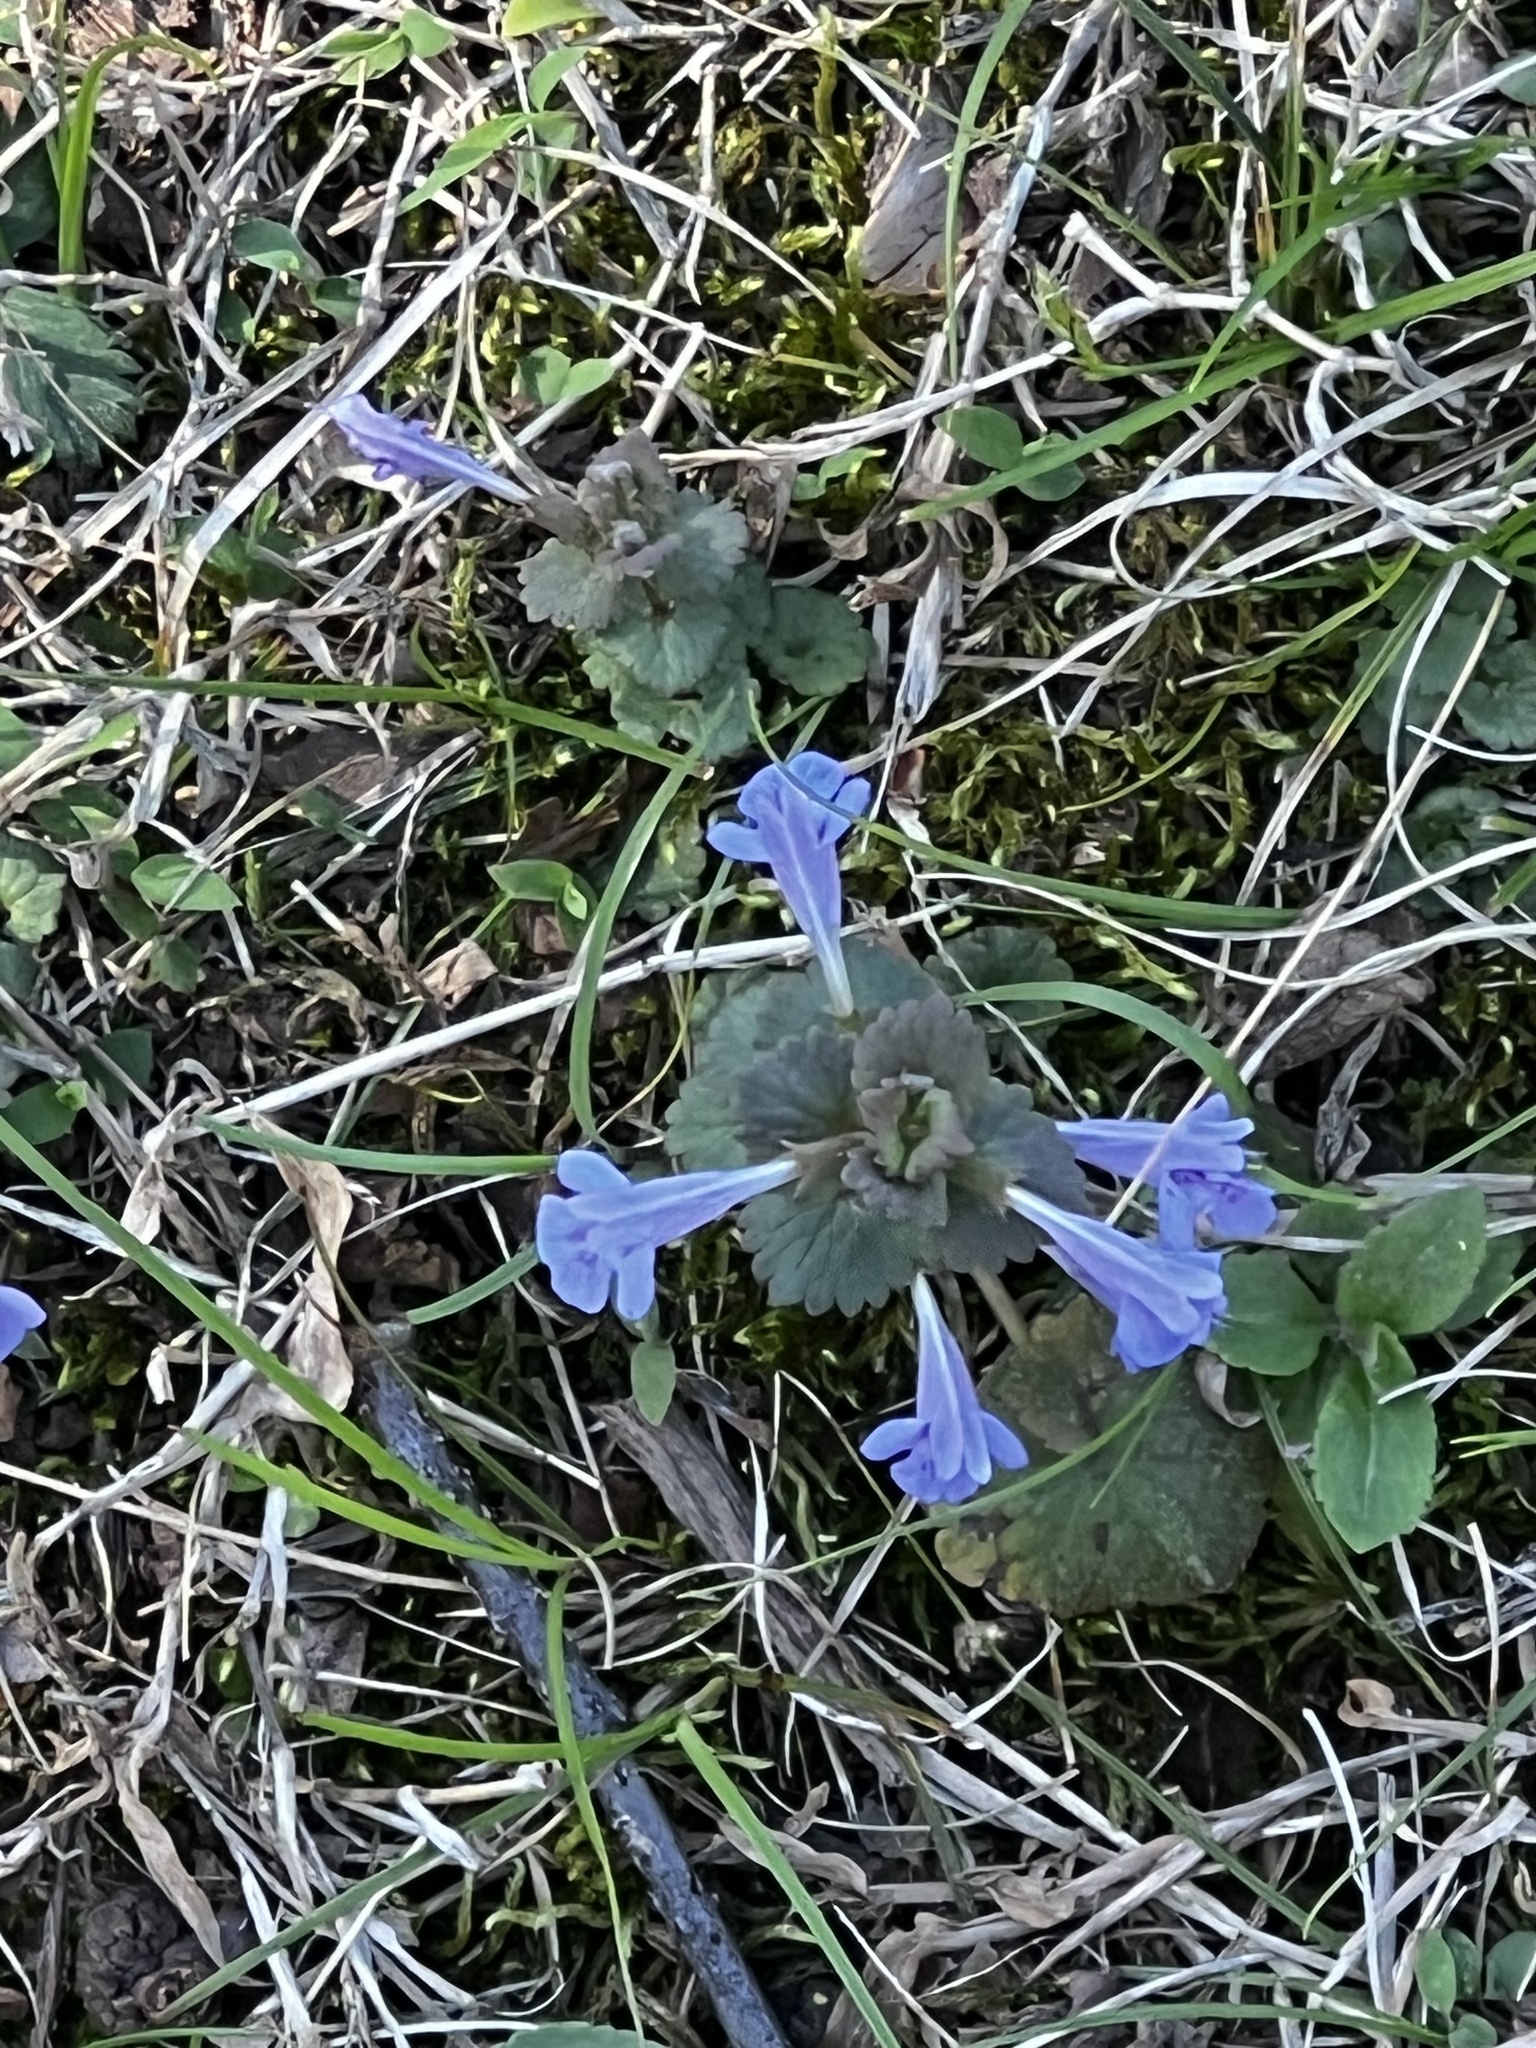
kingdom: Plantae
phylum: Tracheophyta
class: Magnoliopsida
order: Lamiales
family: Lamiaceae
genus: Glechoma
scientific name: Glechoma hederacea
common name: Ground ivy
